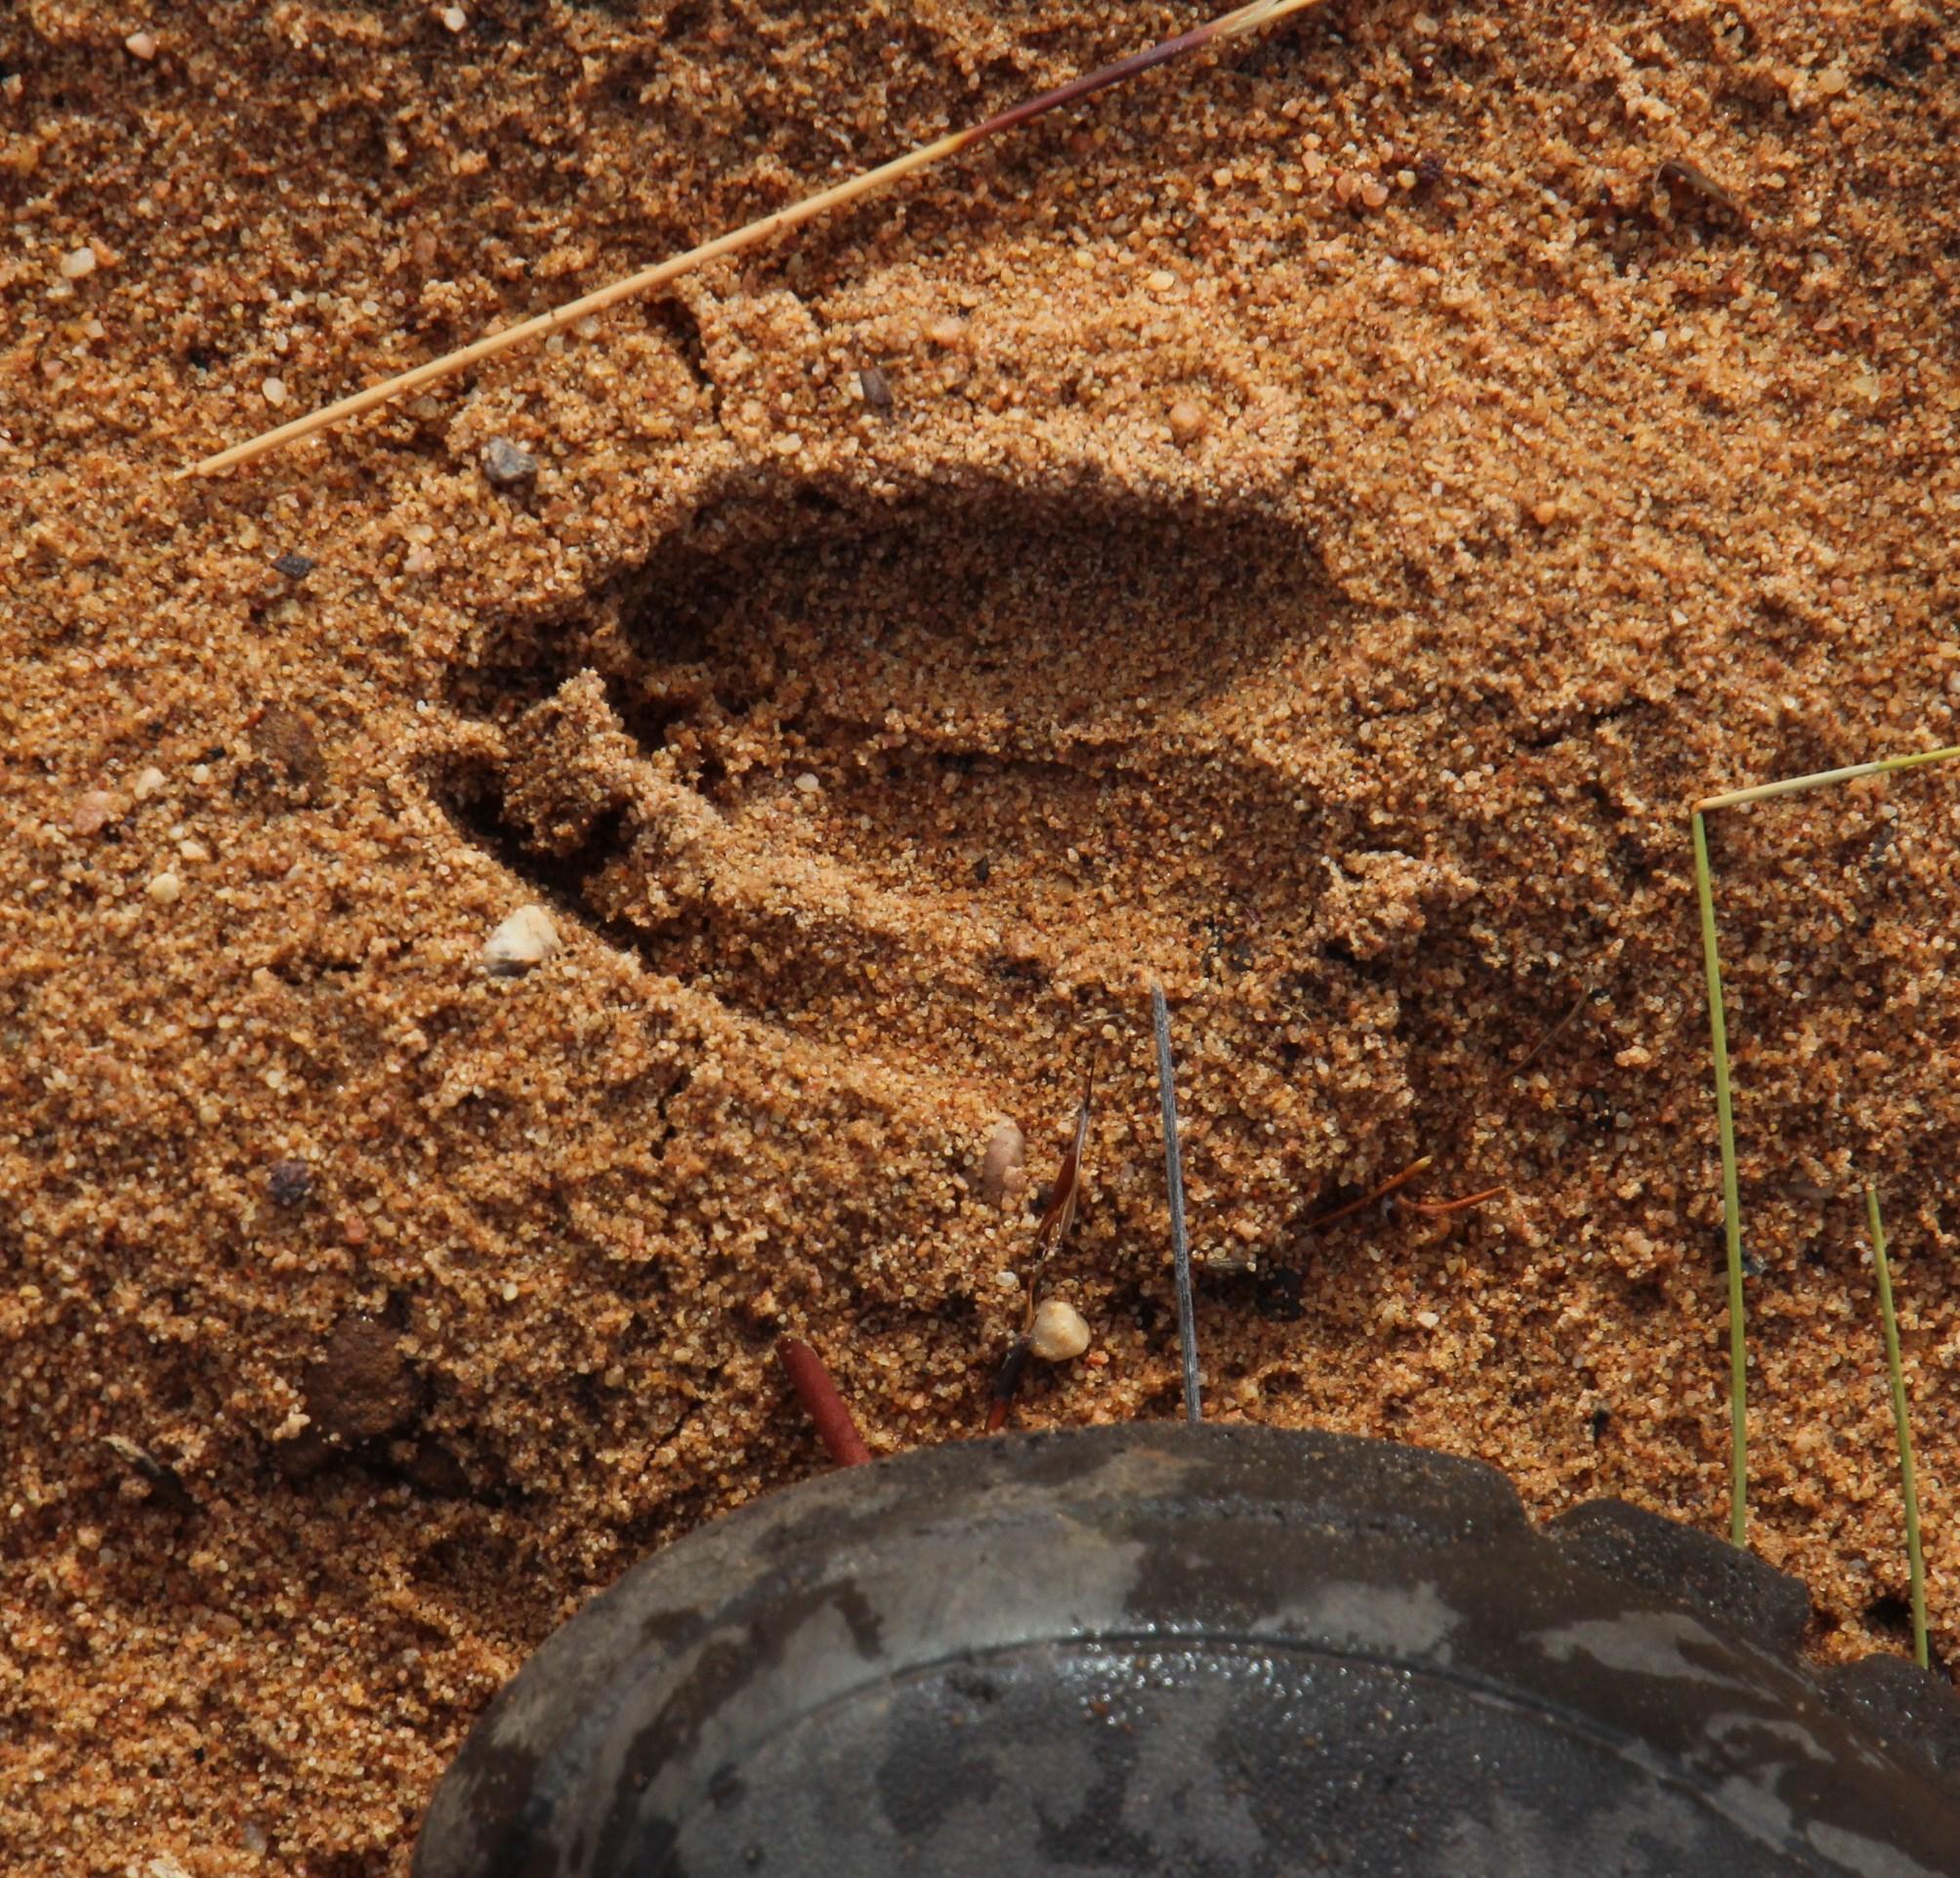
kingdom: Animalia
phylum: Chordata
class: Mammalia
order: Artiodactyla
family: Bovidae
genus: Sylvicapra
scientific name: Sylvicapra grimmia
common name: Bush duiker
